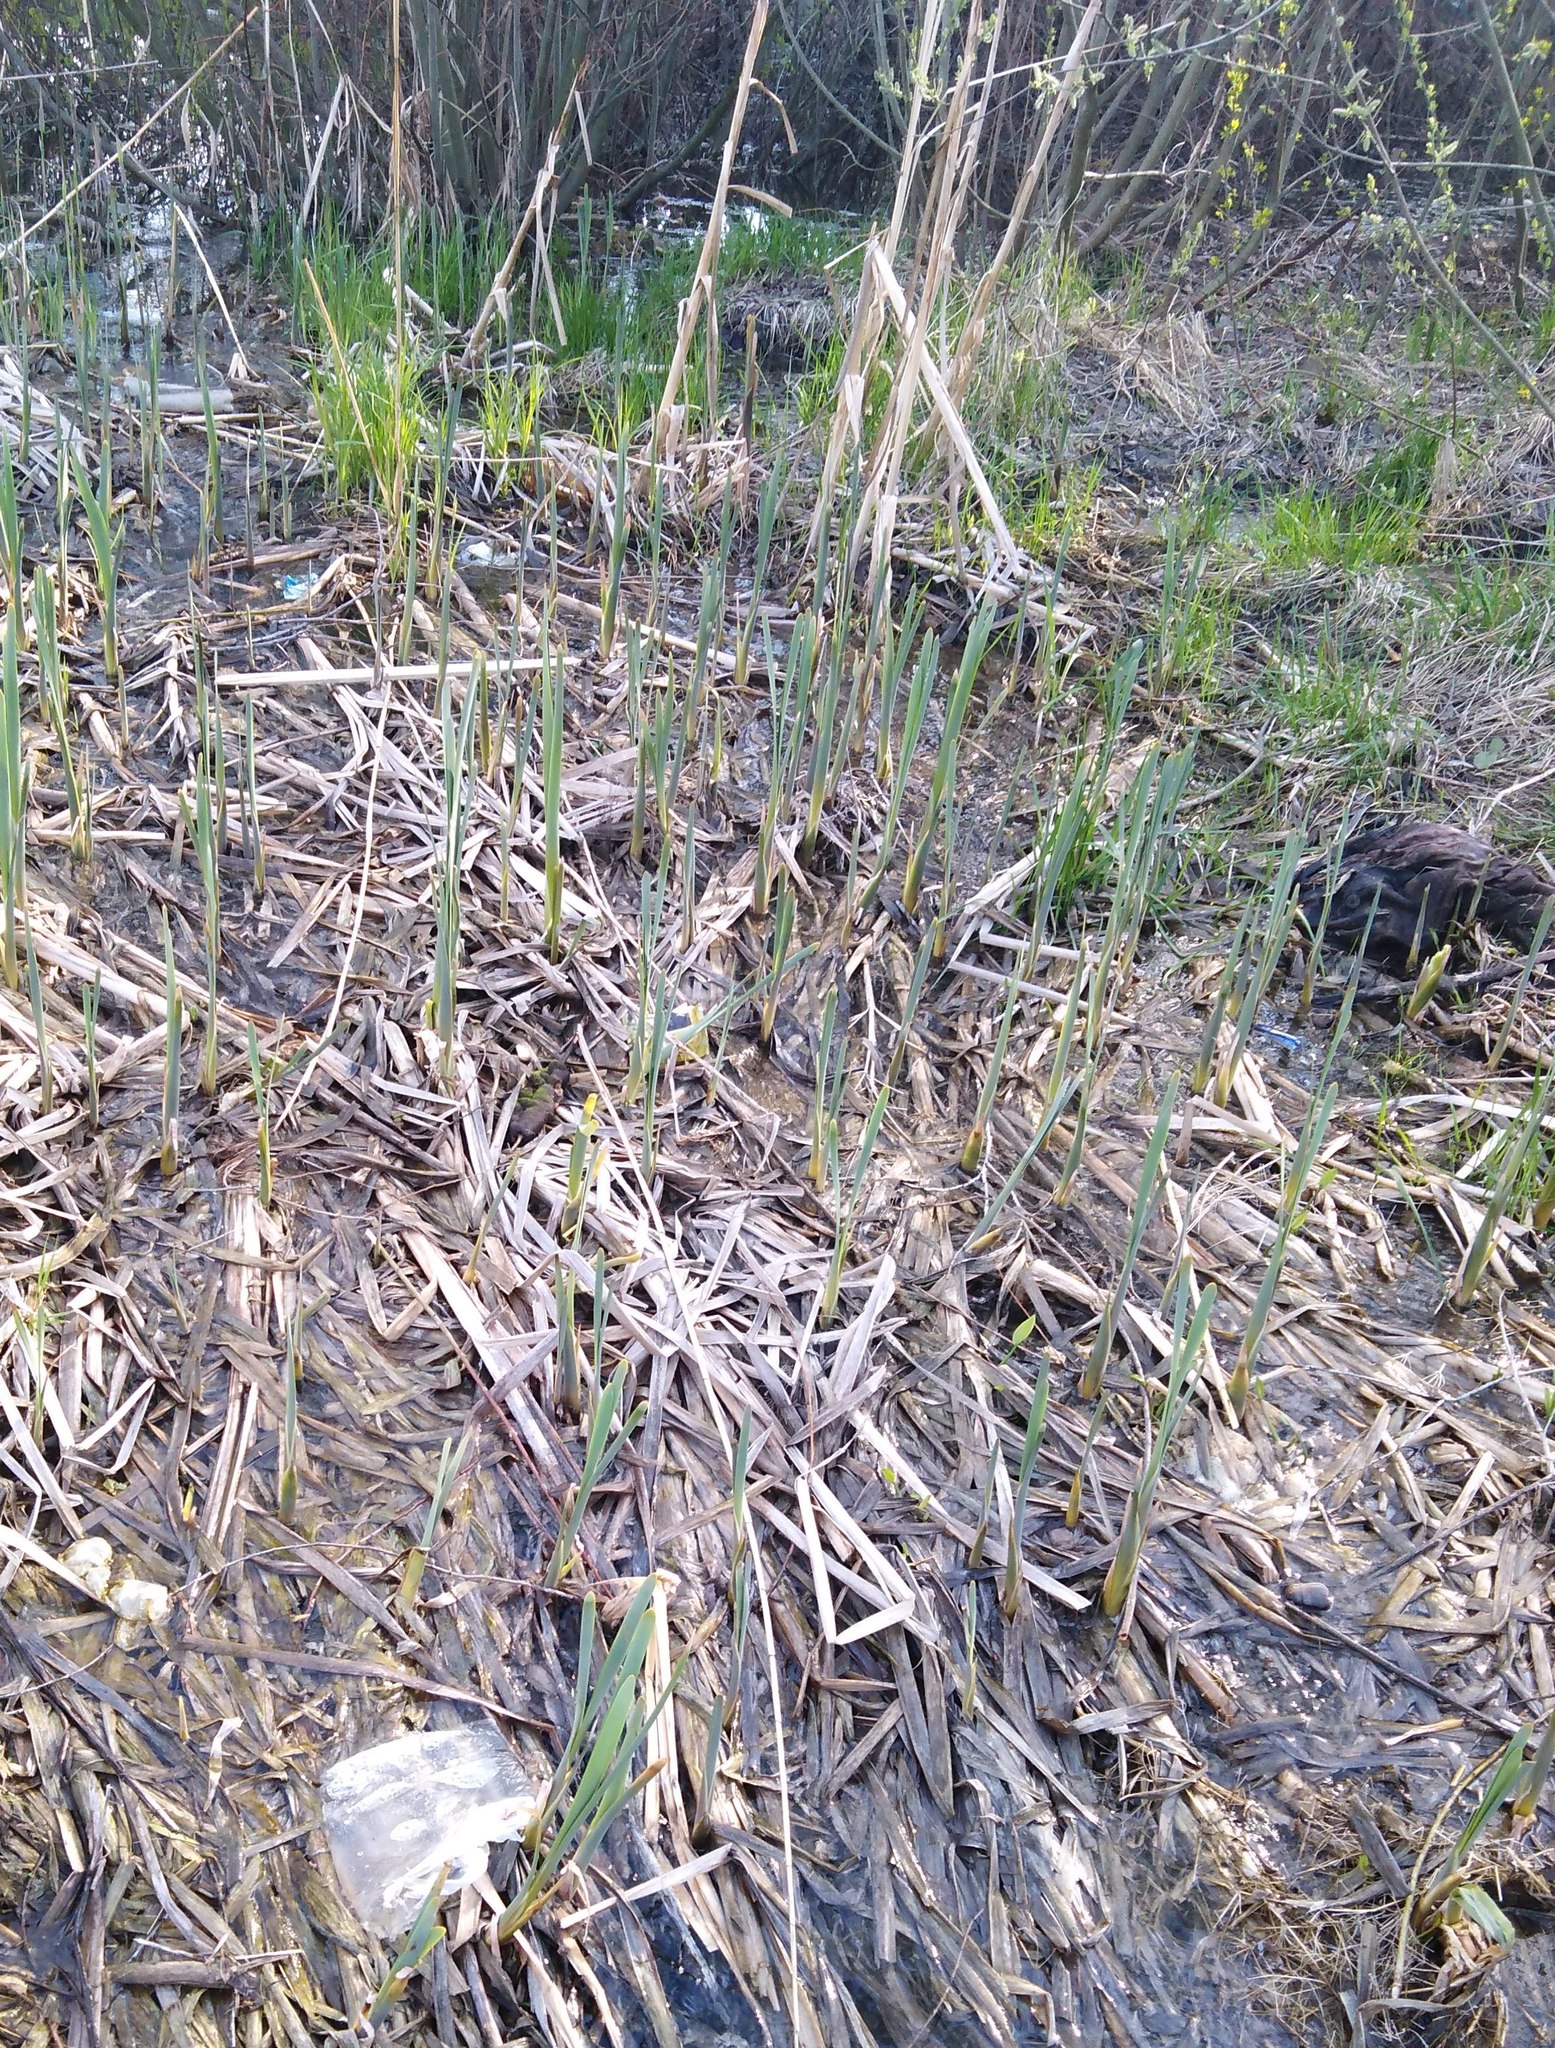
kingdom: Plantae
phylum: Tracheophyta
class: Liliopsida
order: Poales
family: Typhaceae
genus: Typha
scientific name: Typha latifolia
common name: Broadleaf cattail
